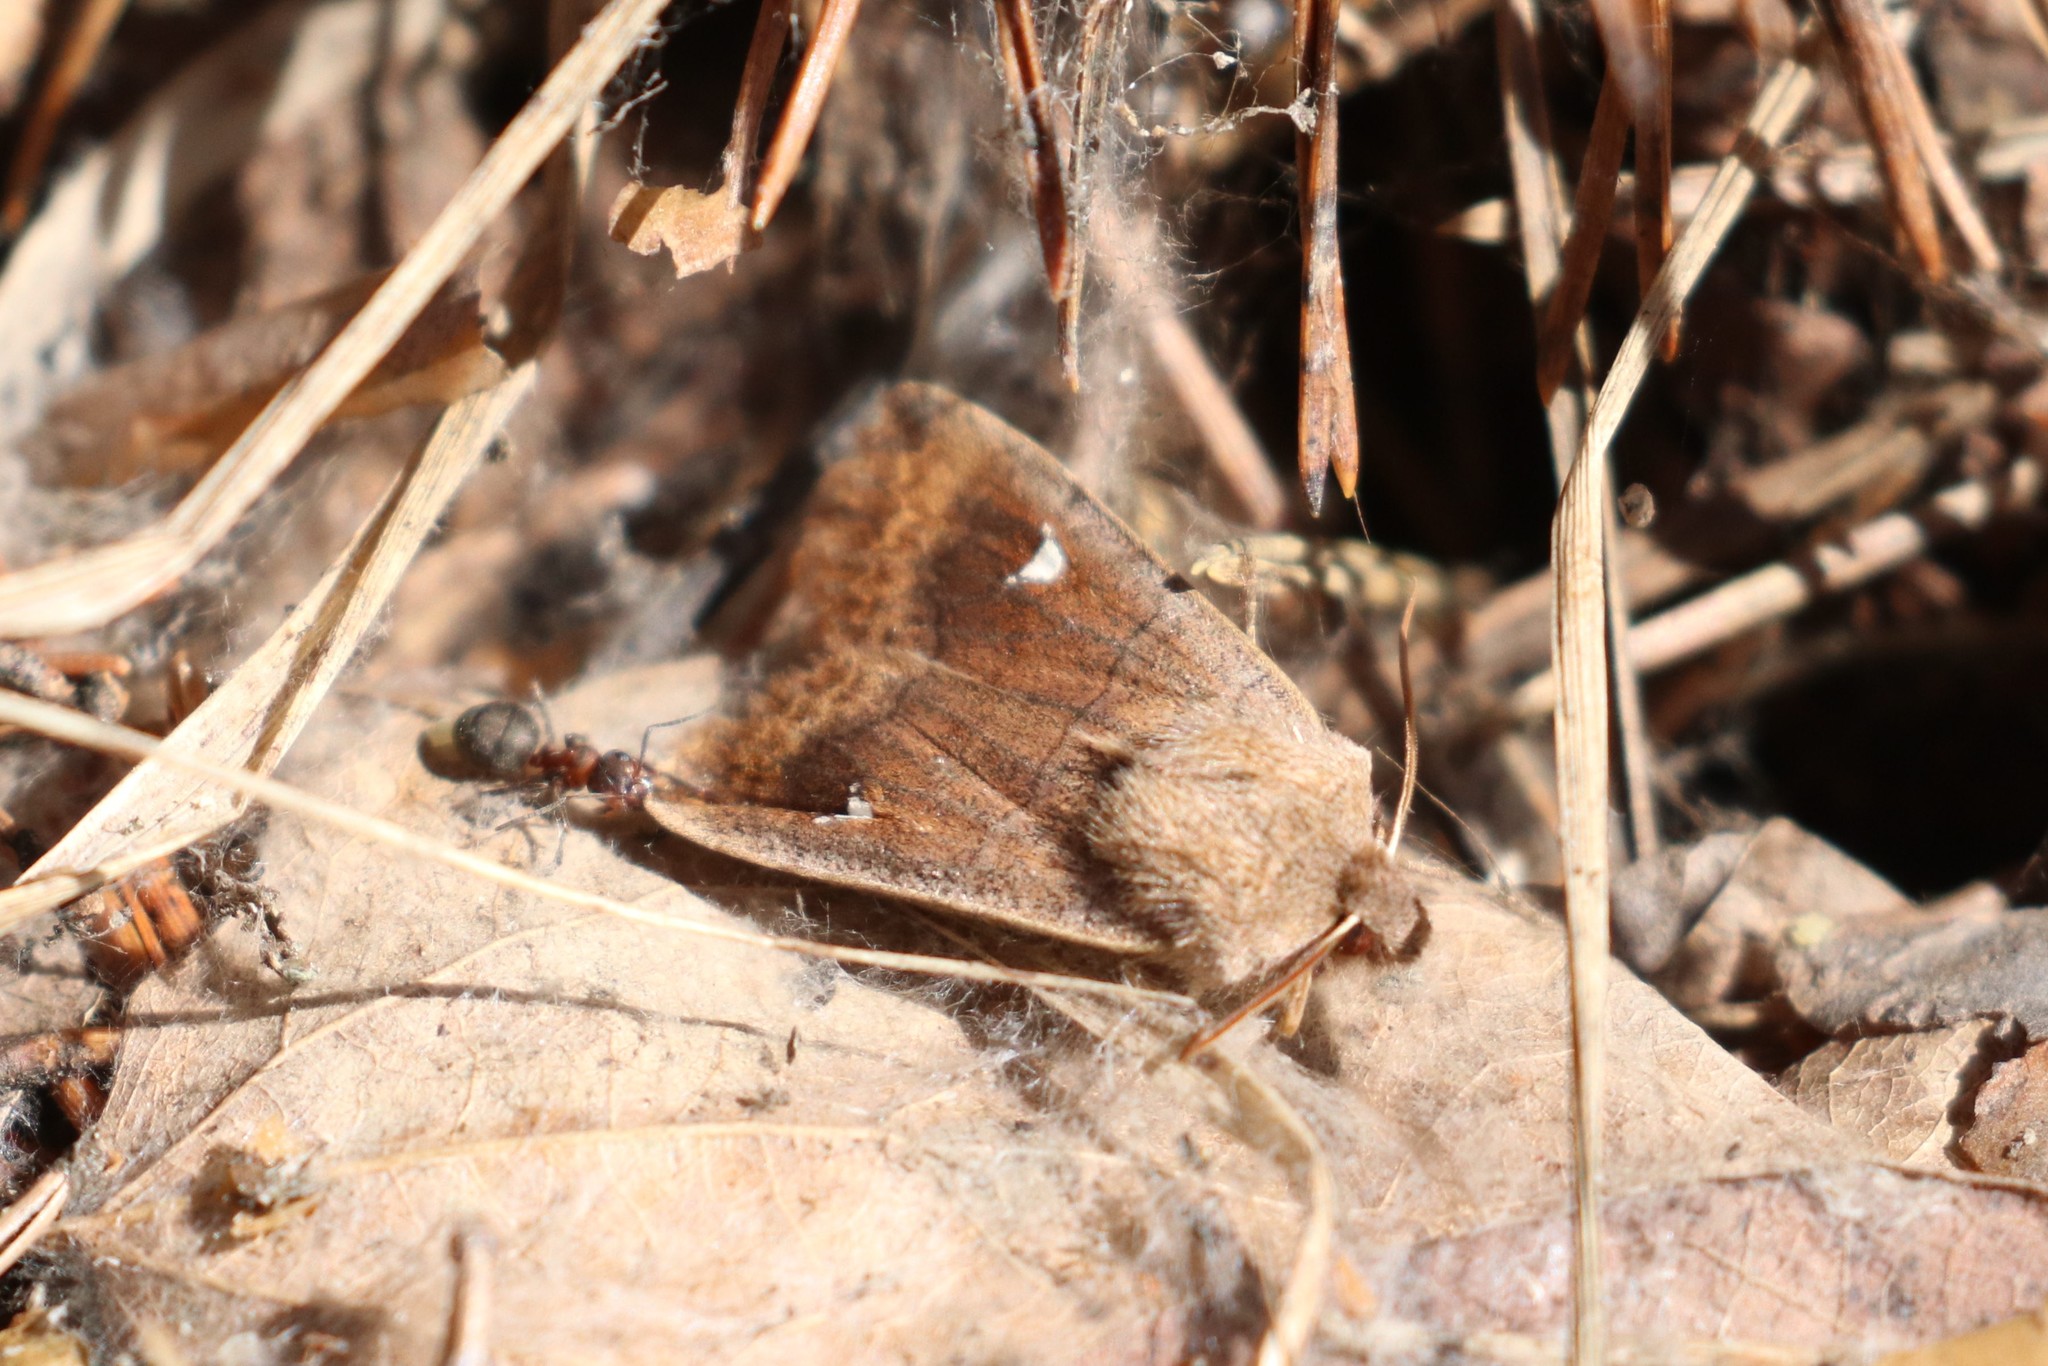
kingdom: Animalia
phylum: Arthropoda
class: Insecta
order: Lepidoptera
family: Noctuidae
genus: Eupsilia
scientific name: Eupsilia transversa
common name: Satellite
